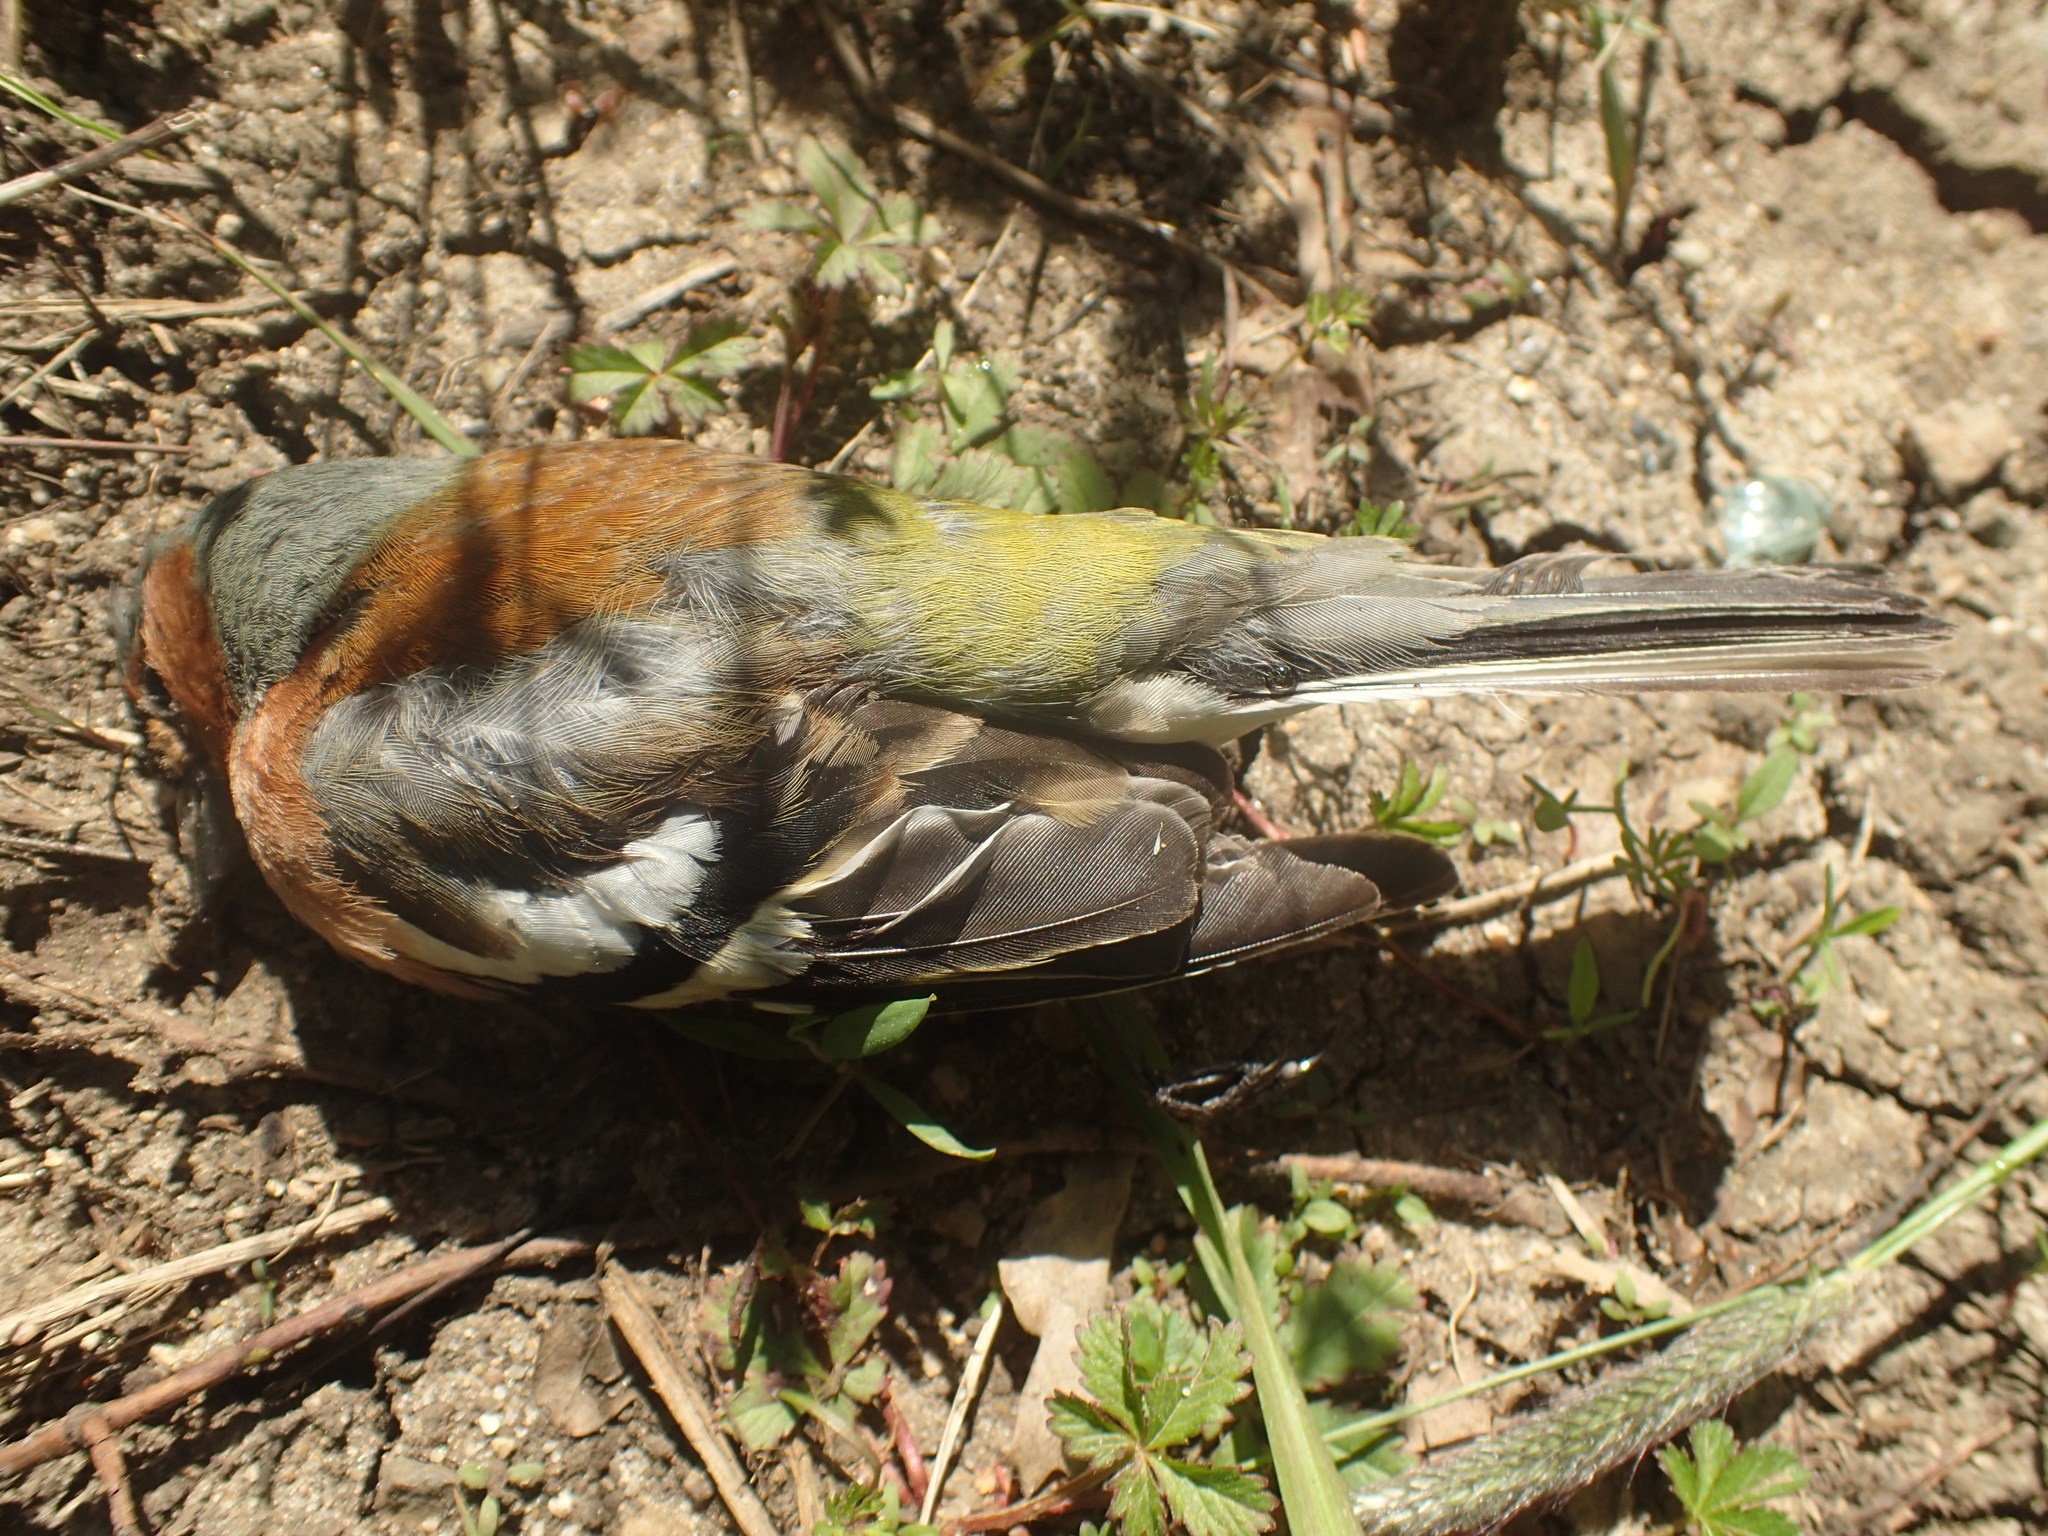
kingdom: Animalia
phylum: Chordata
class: Aves
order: Passeriformes
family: Fringillidae
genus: Fringilla
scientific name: Fringilla coelebs
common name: Common chaffinch
